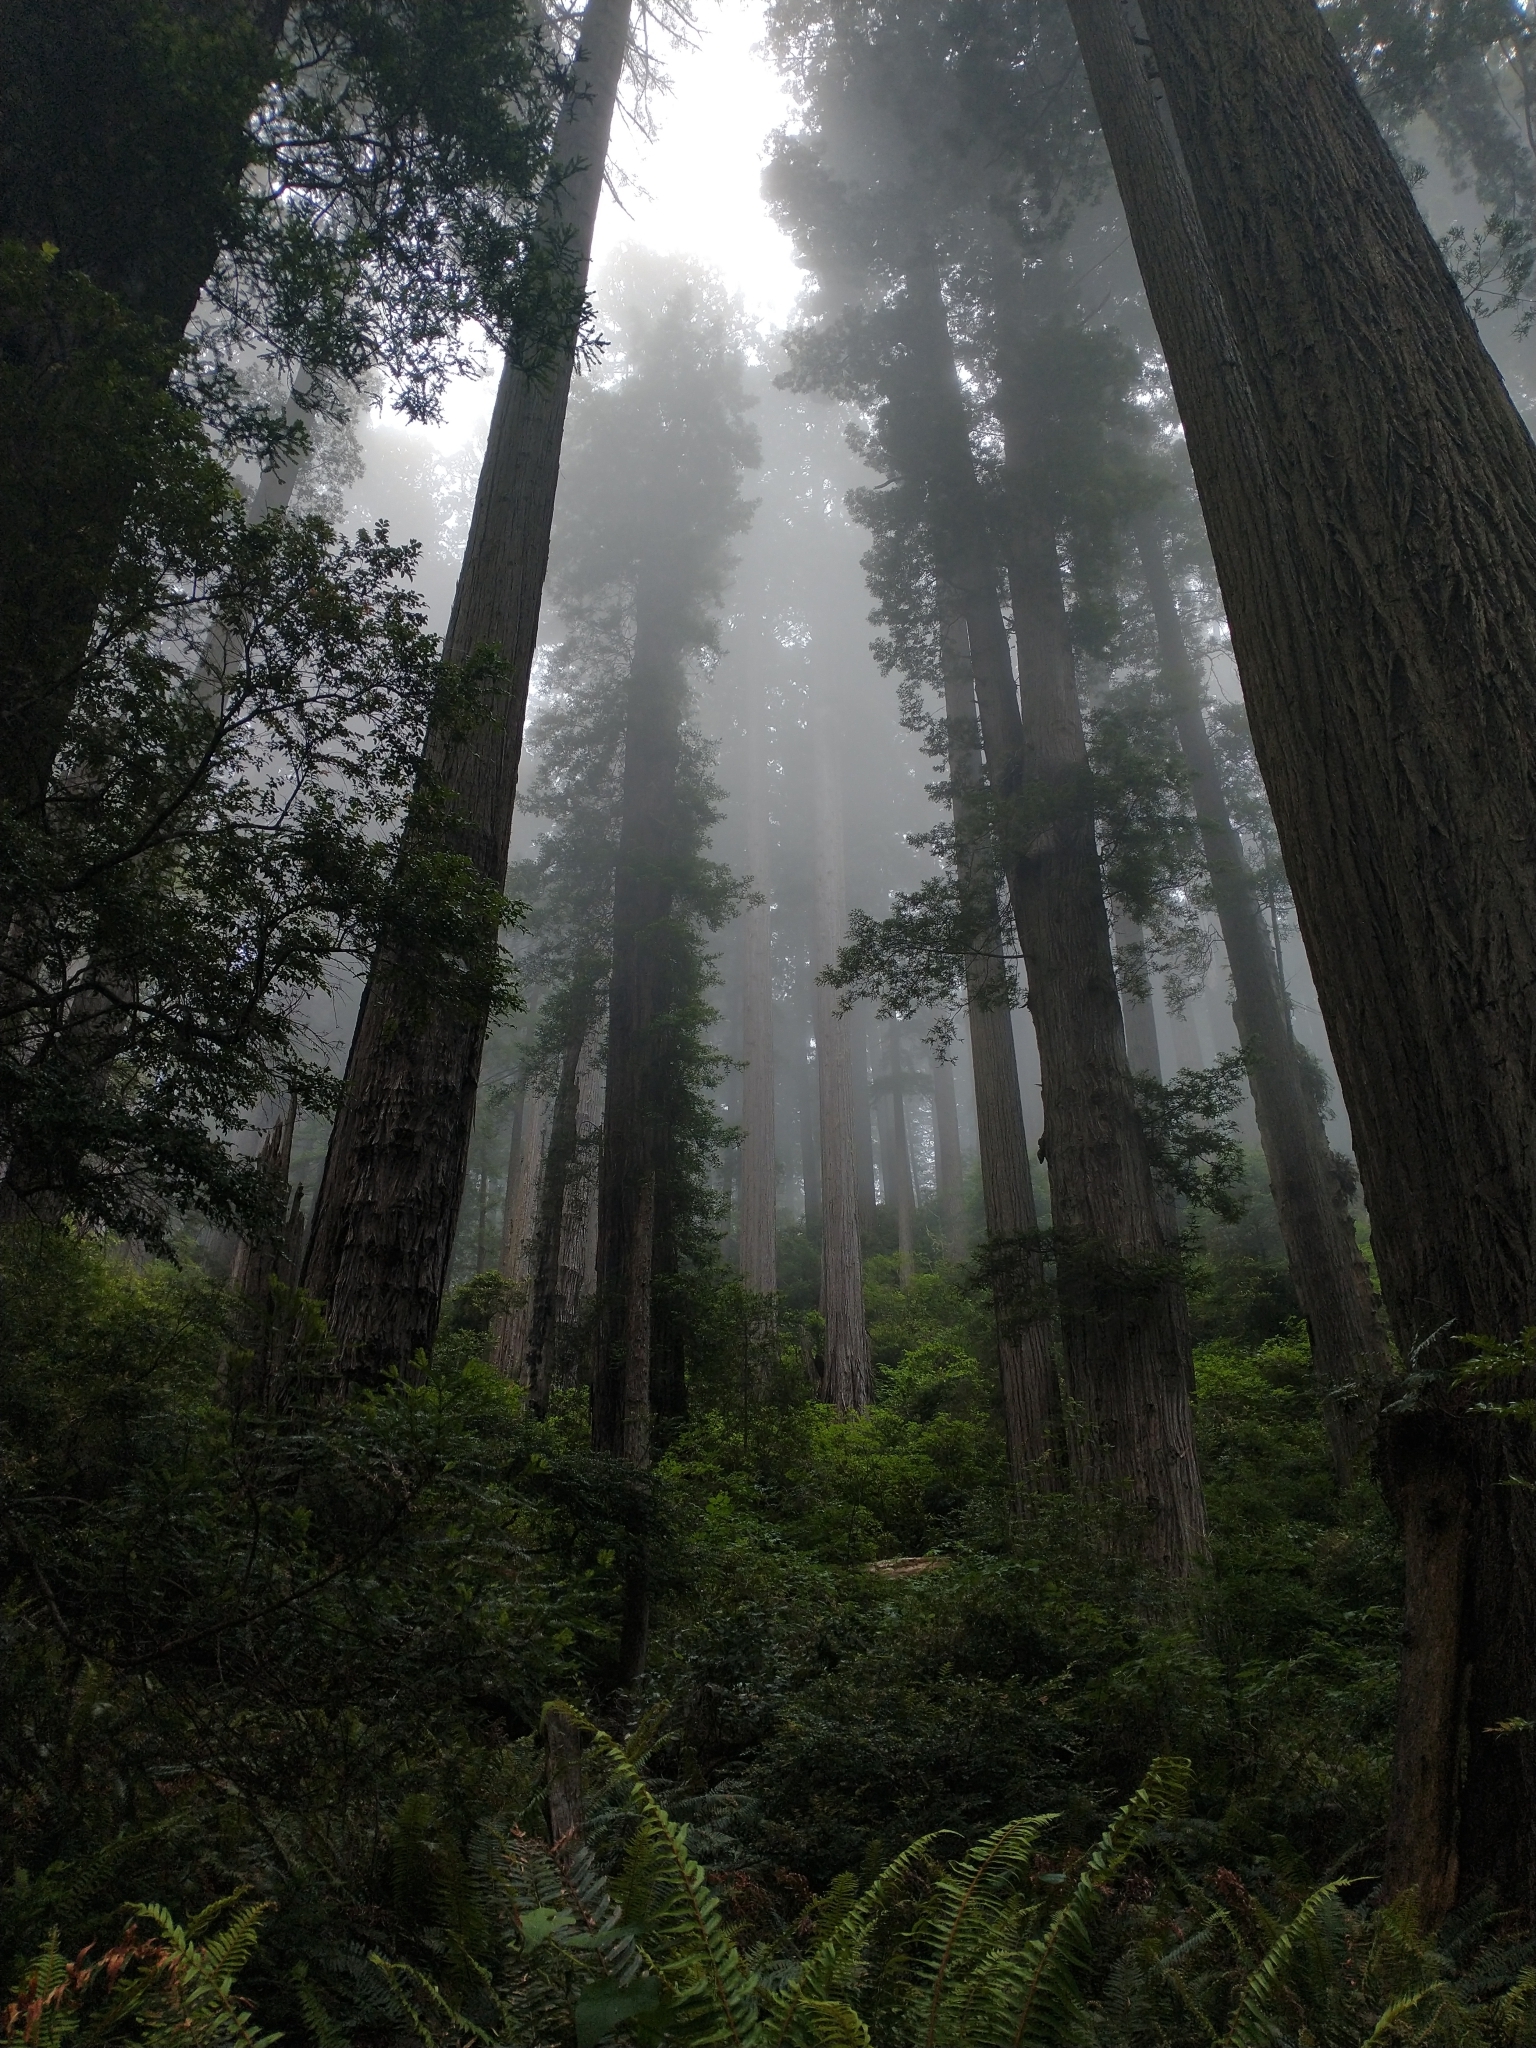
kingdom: Plantae
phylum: Tracheophyta
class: Pinopsida
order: Pinales
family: Cupressaceae
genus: Sequoia
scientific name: Sequoia sempervirens
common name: Coast redwood
